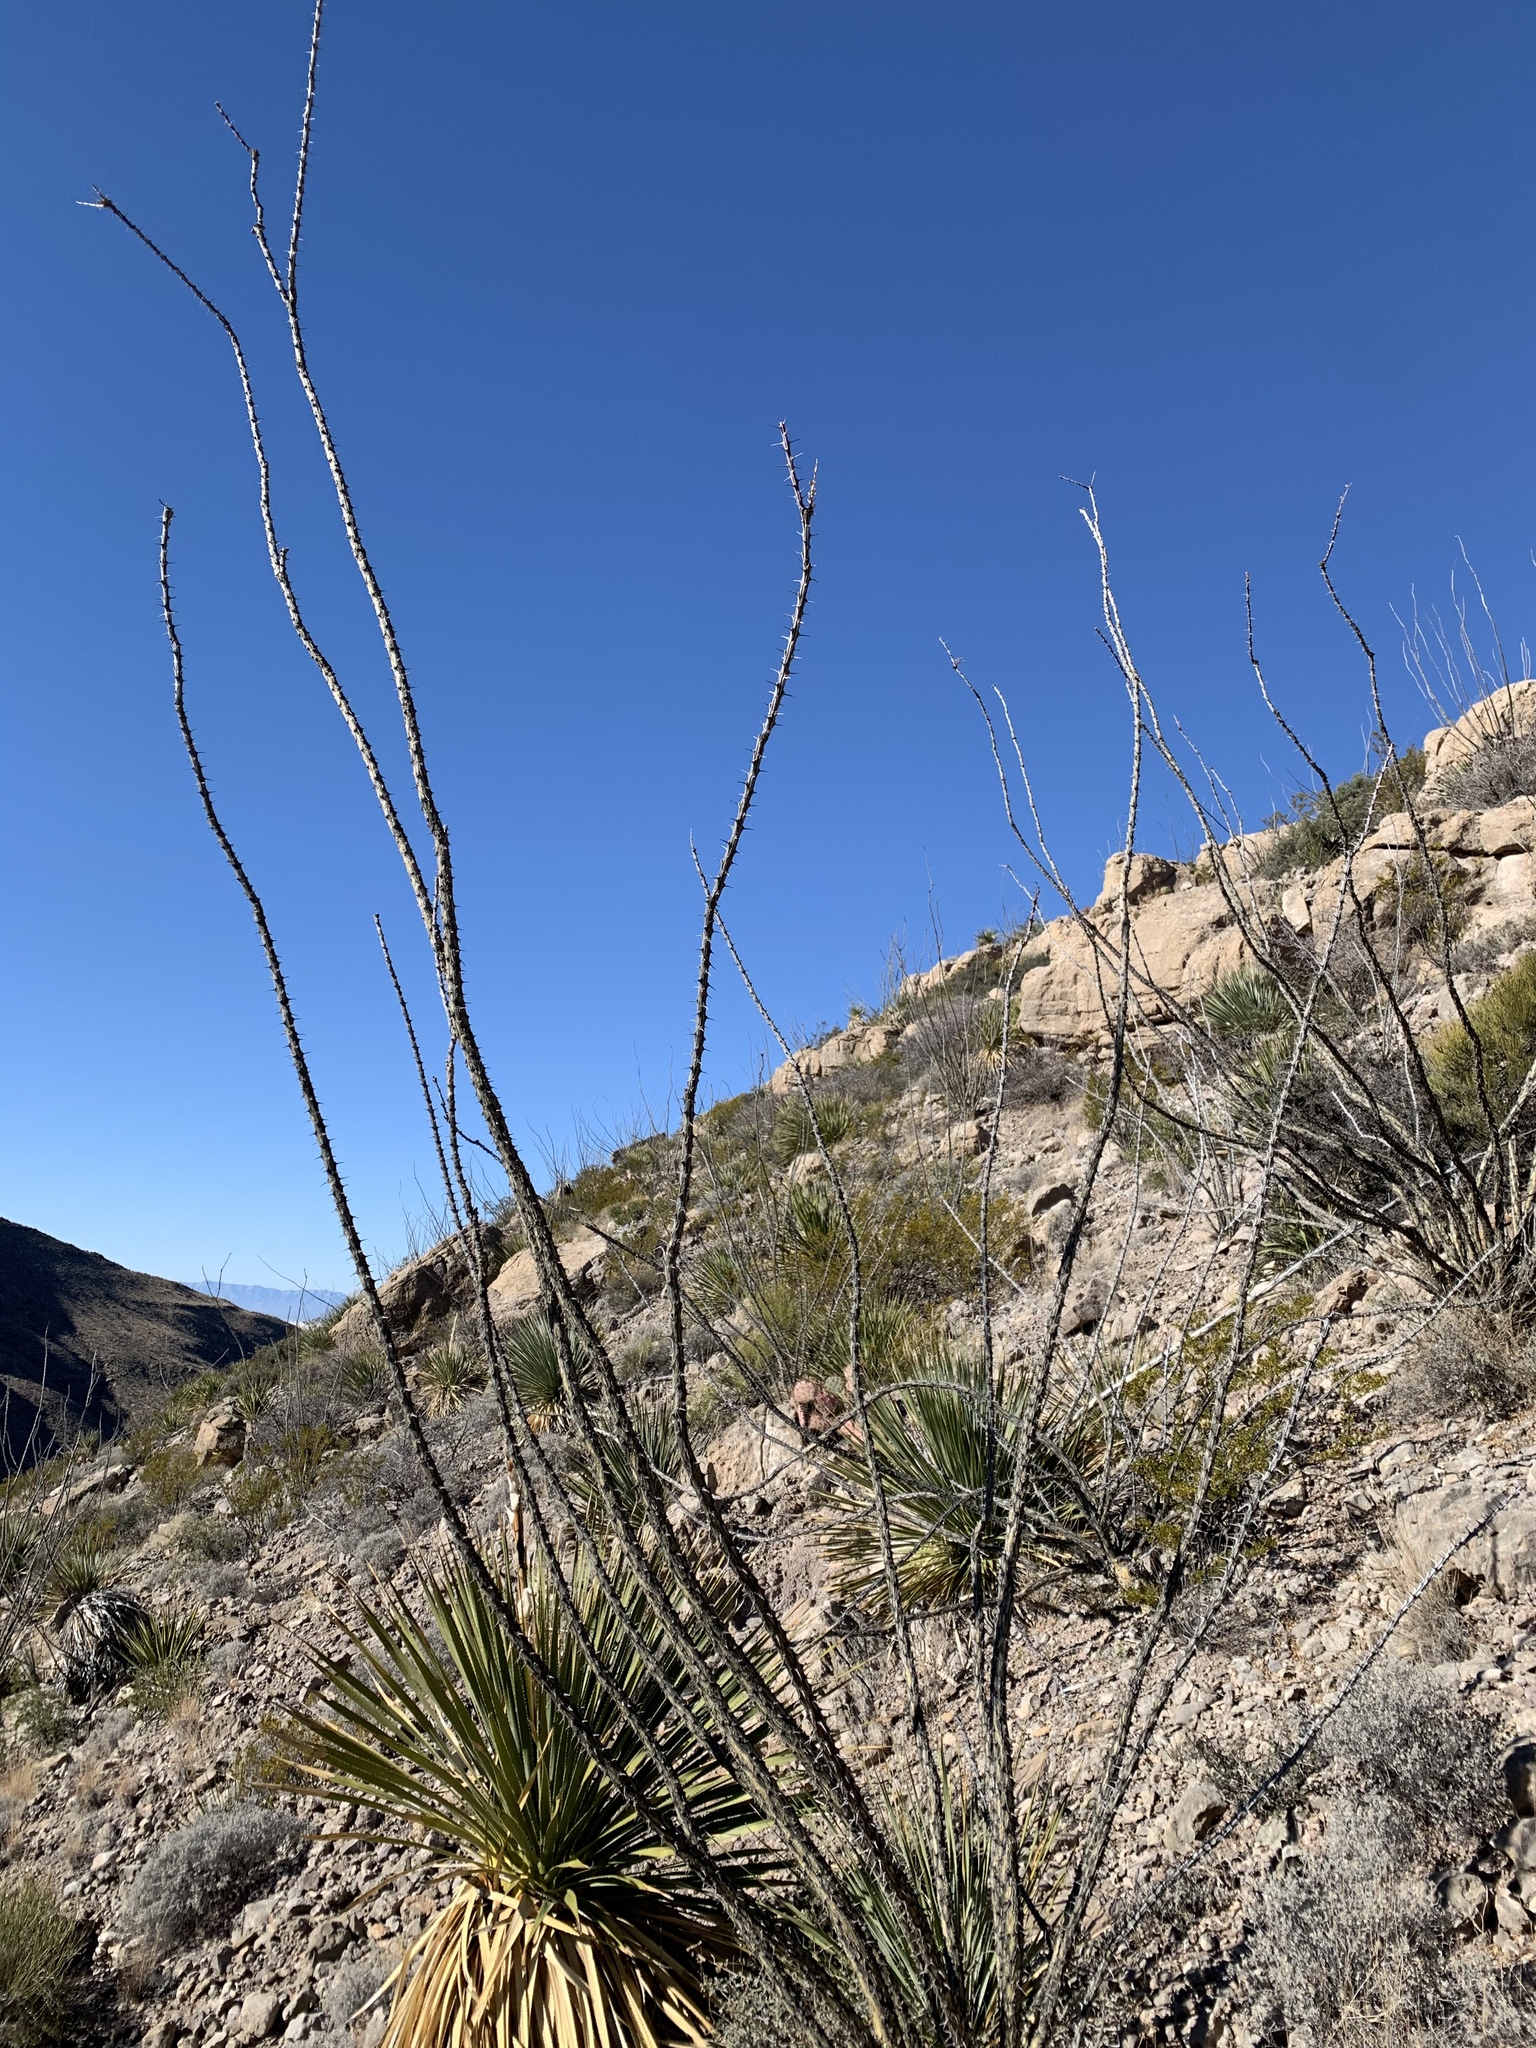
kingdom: Plantae
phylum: Tracheophyta
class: Magnoliopsida
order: Ericales
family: Fouquieriaceae
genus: Fouquieria
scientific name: Fouquieria splendens
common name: Vine-cactus
